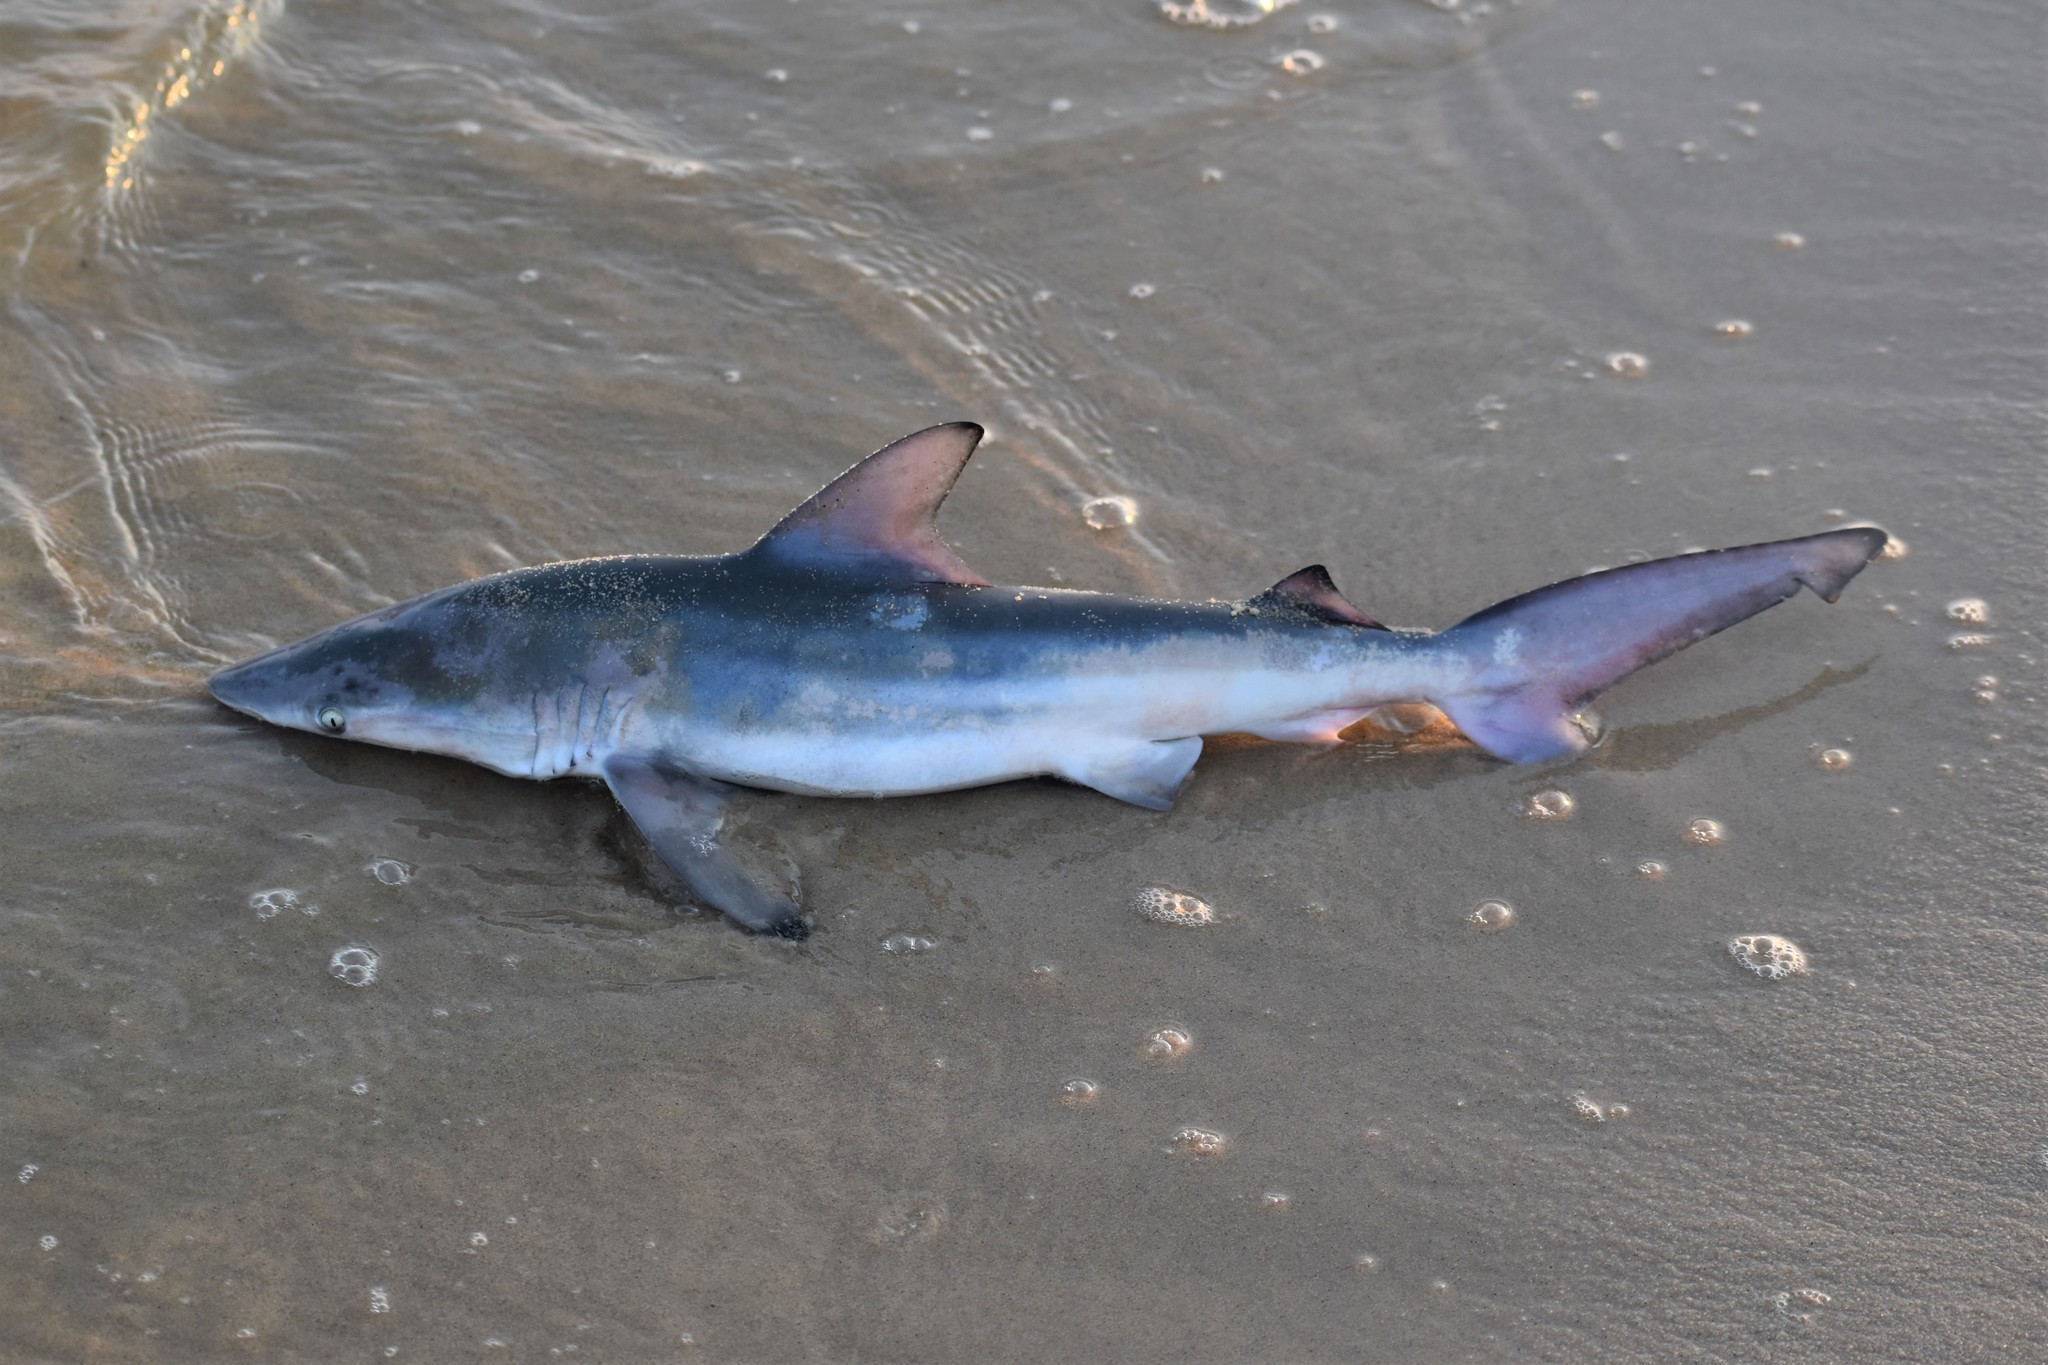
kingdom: Animalia
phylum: Chordata
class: Elasmobranchii
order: Carcharhiniformes
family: Carcharhinidae
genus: Carcharhinus
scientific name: Carcharhinus limbatus
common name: Blacktip shark
